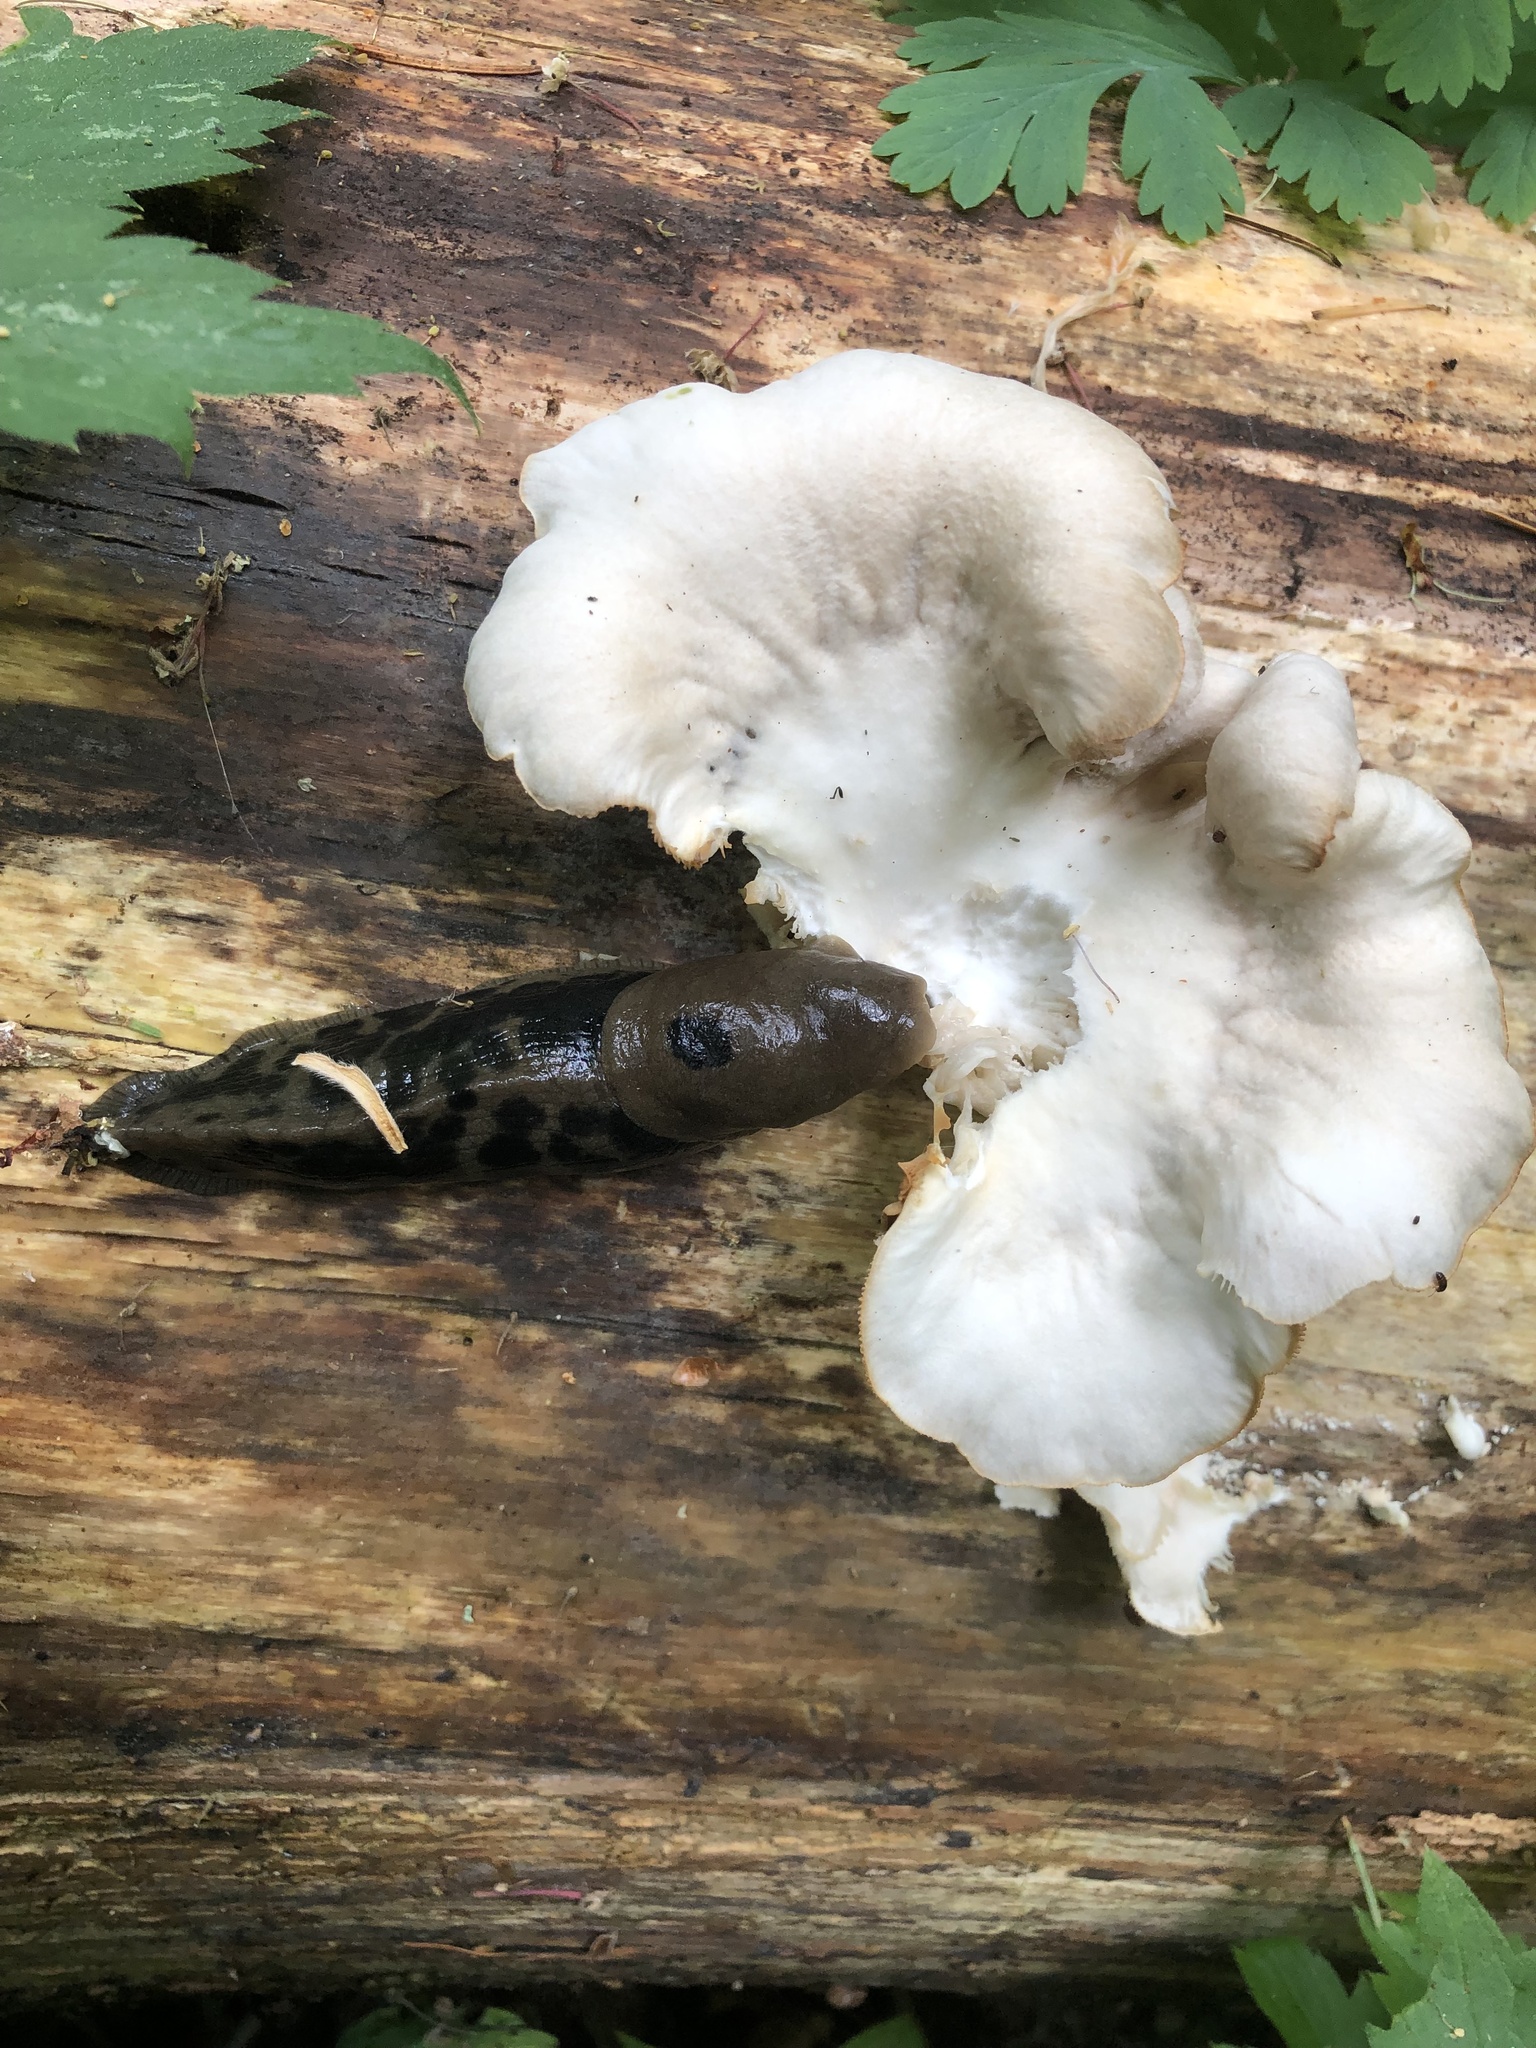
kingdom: Animalia
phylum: Mollusca
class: Gastropoda
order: Stylommatophora
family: Ariolimacidae
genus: Ariolimax
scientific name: Ariolimax columbianus
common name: Pacific banana slug
